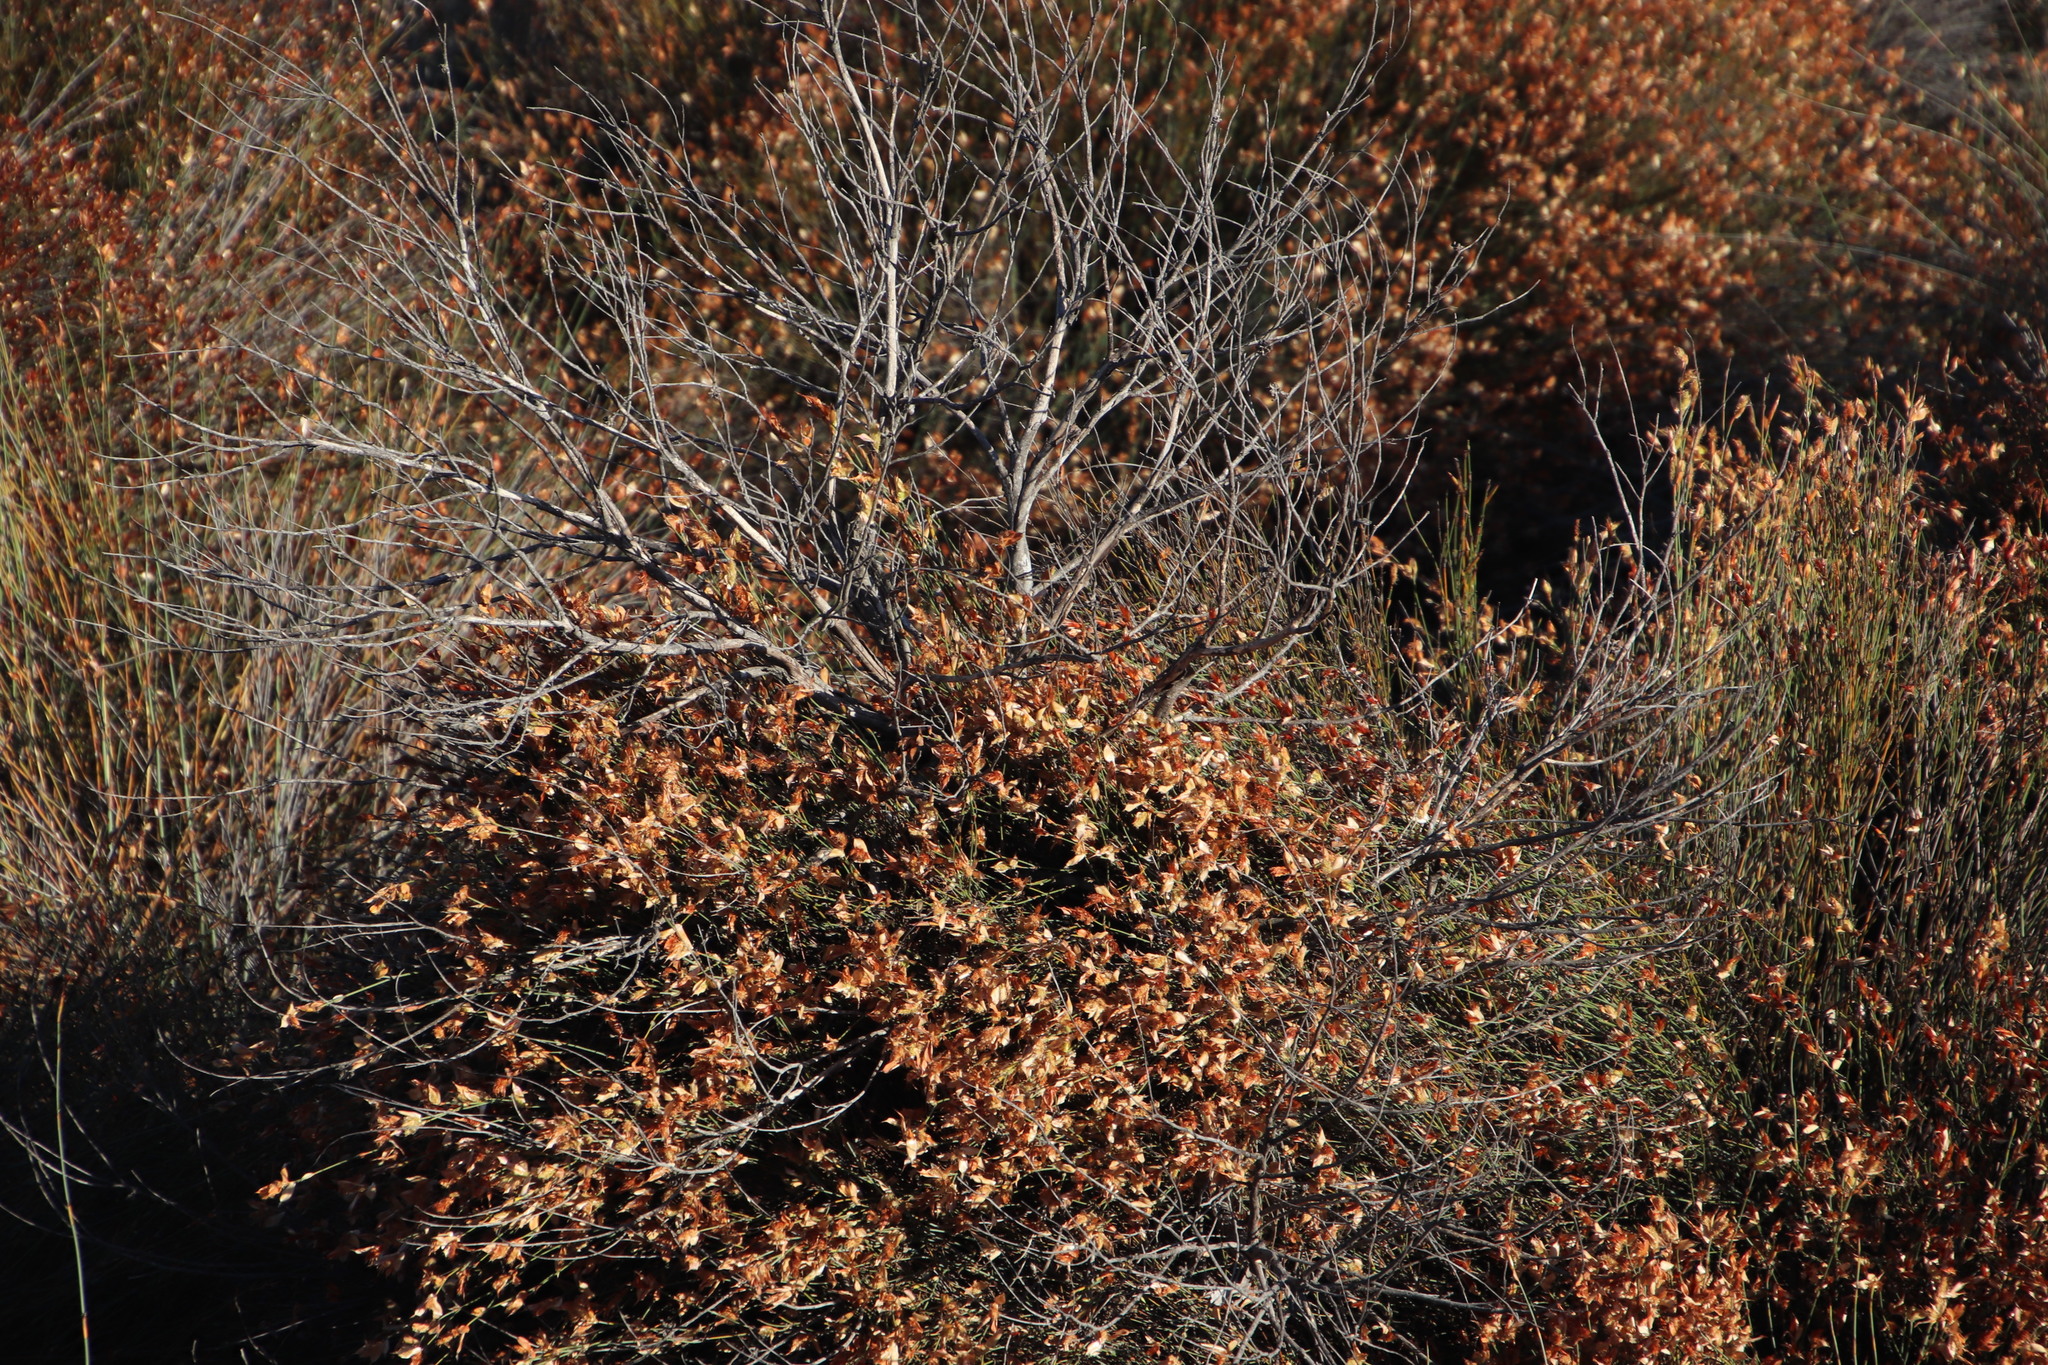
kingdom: Plantae
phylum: Tracheophyta
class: Liliopsida
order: Poales
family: Restionaceae
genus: Willdenowia
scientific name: Willdenowia incurvata
